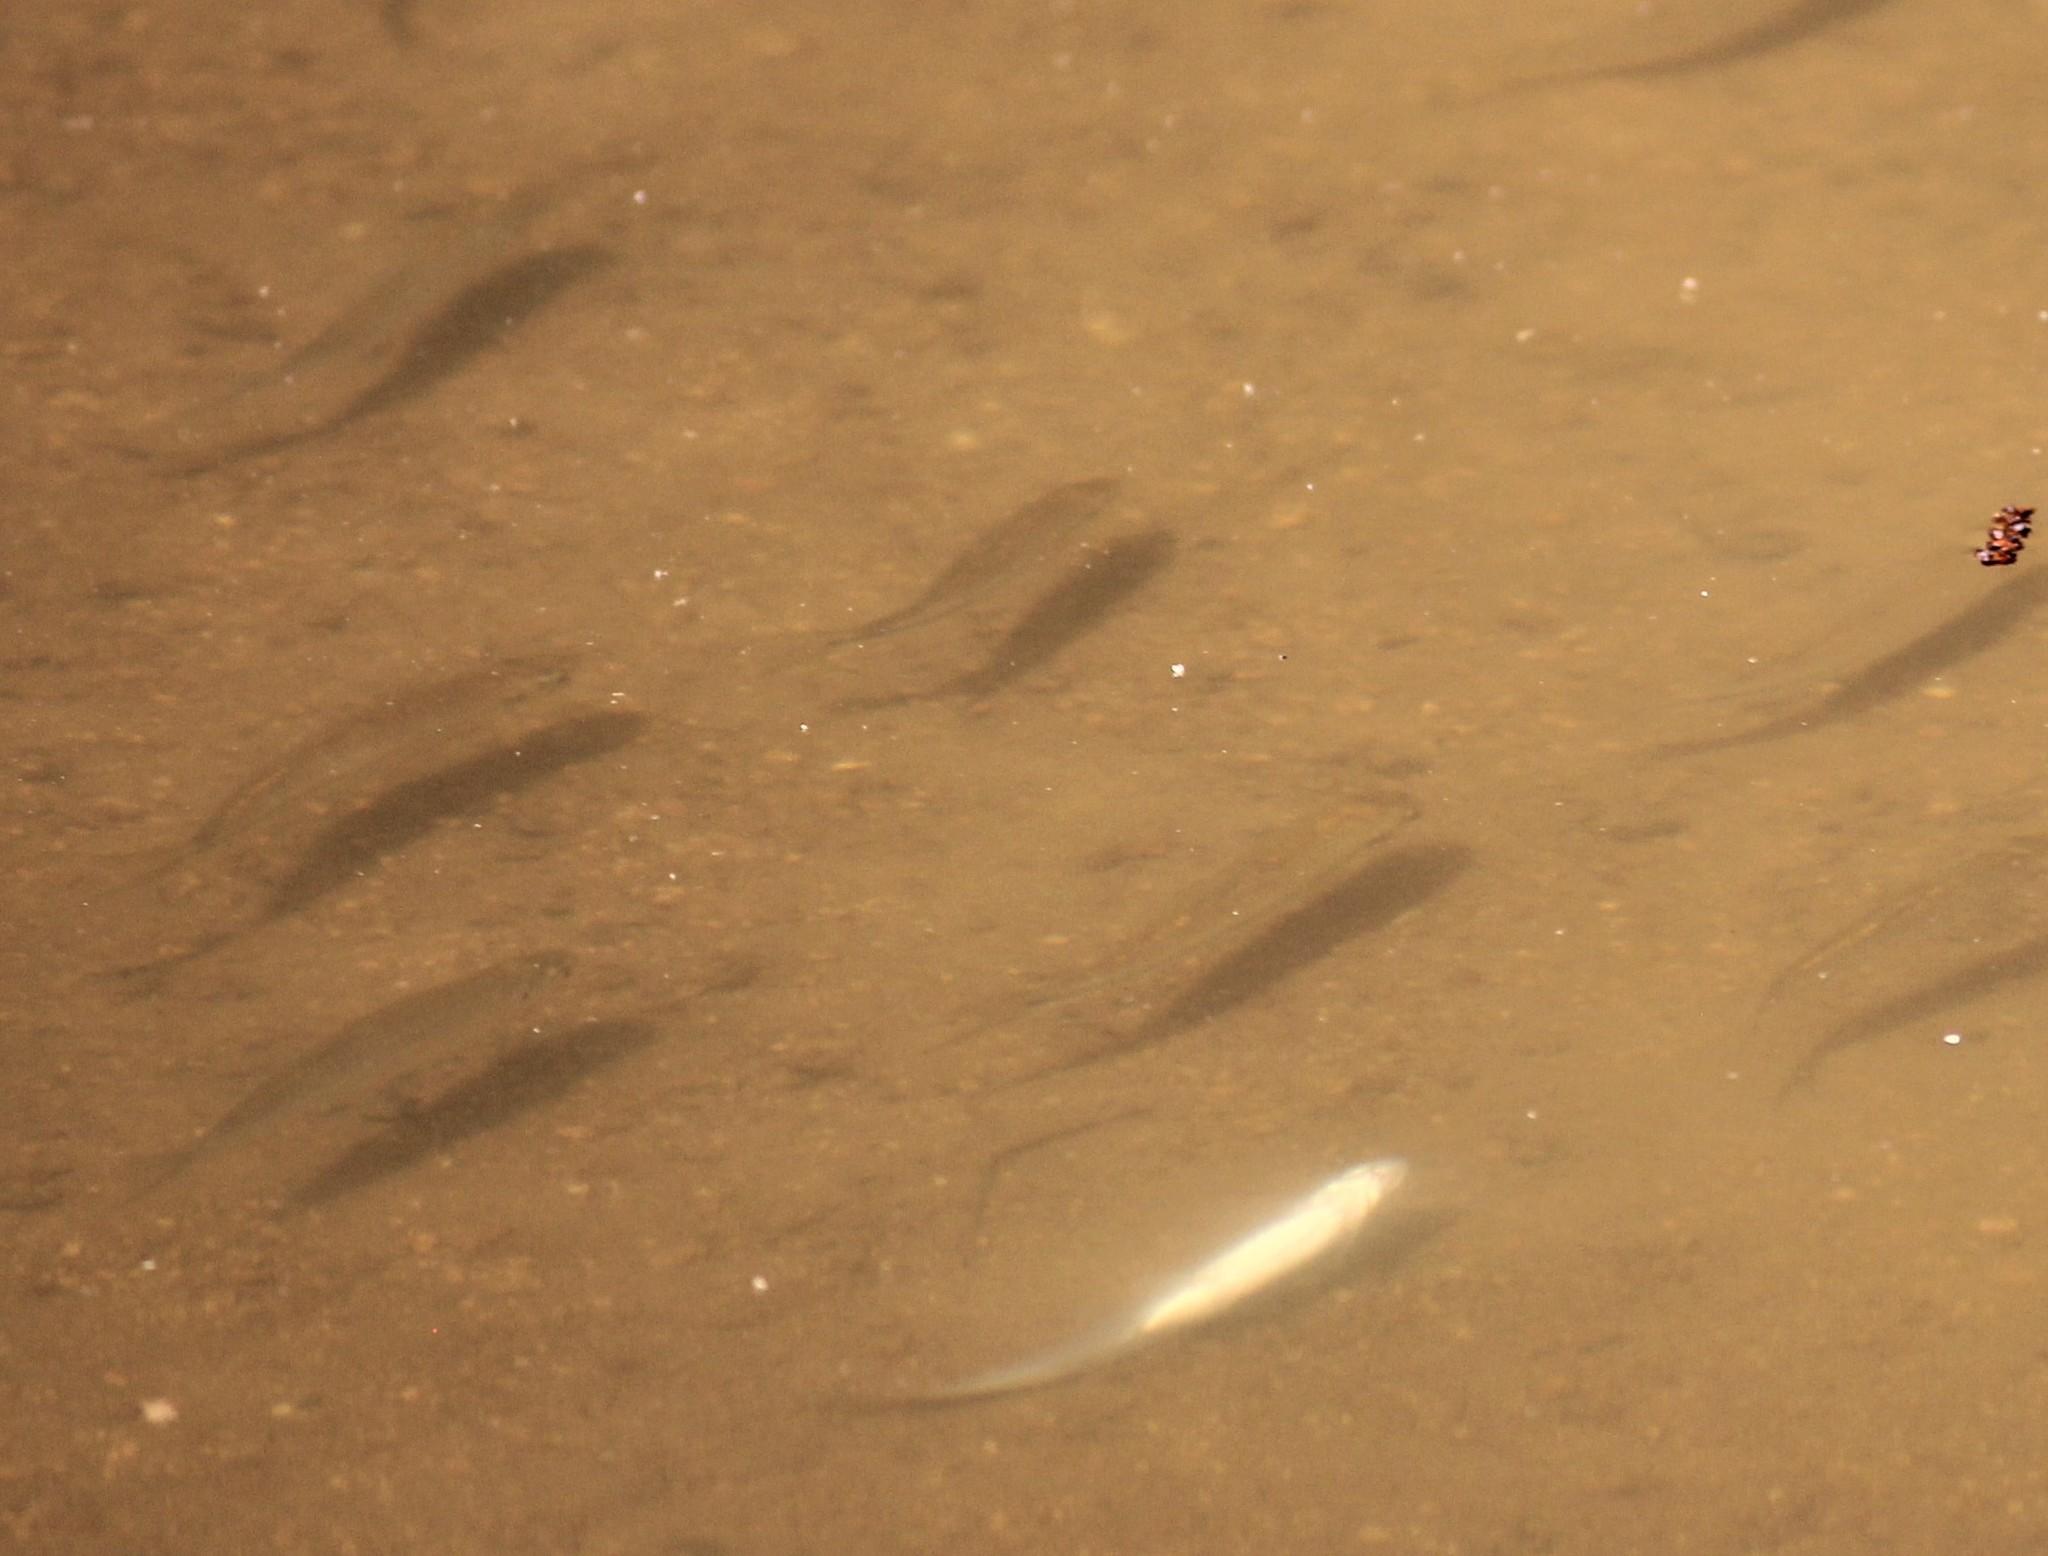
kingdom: Animalia
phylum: Chordata
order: Cypriniformes
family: Cyprinidae
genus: Notropis
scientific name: Notropis
